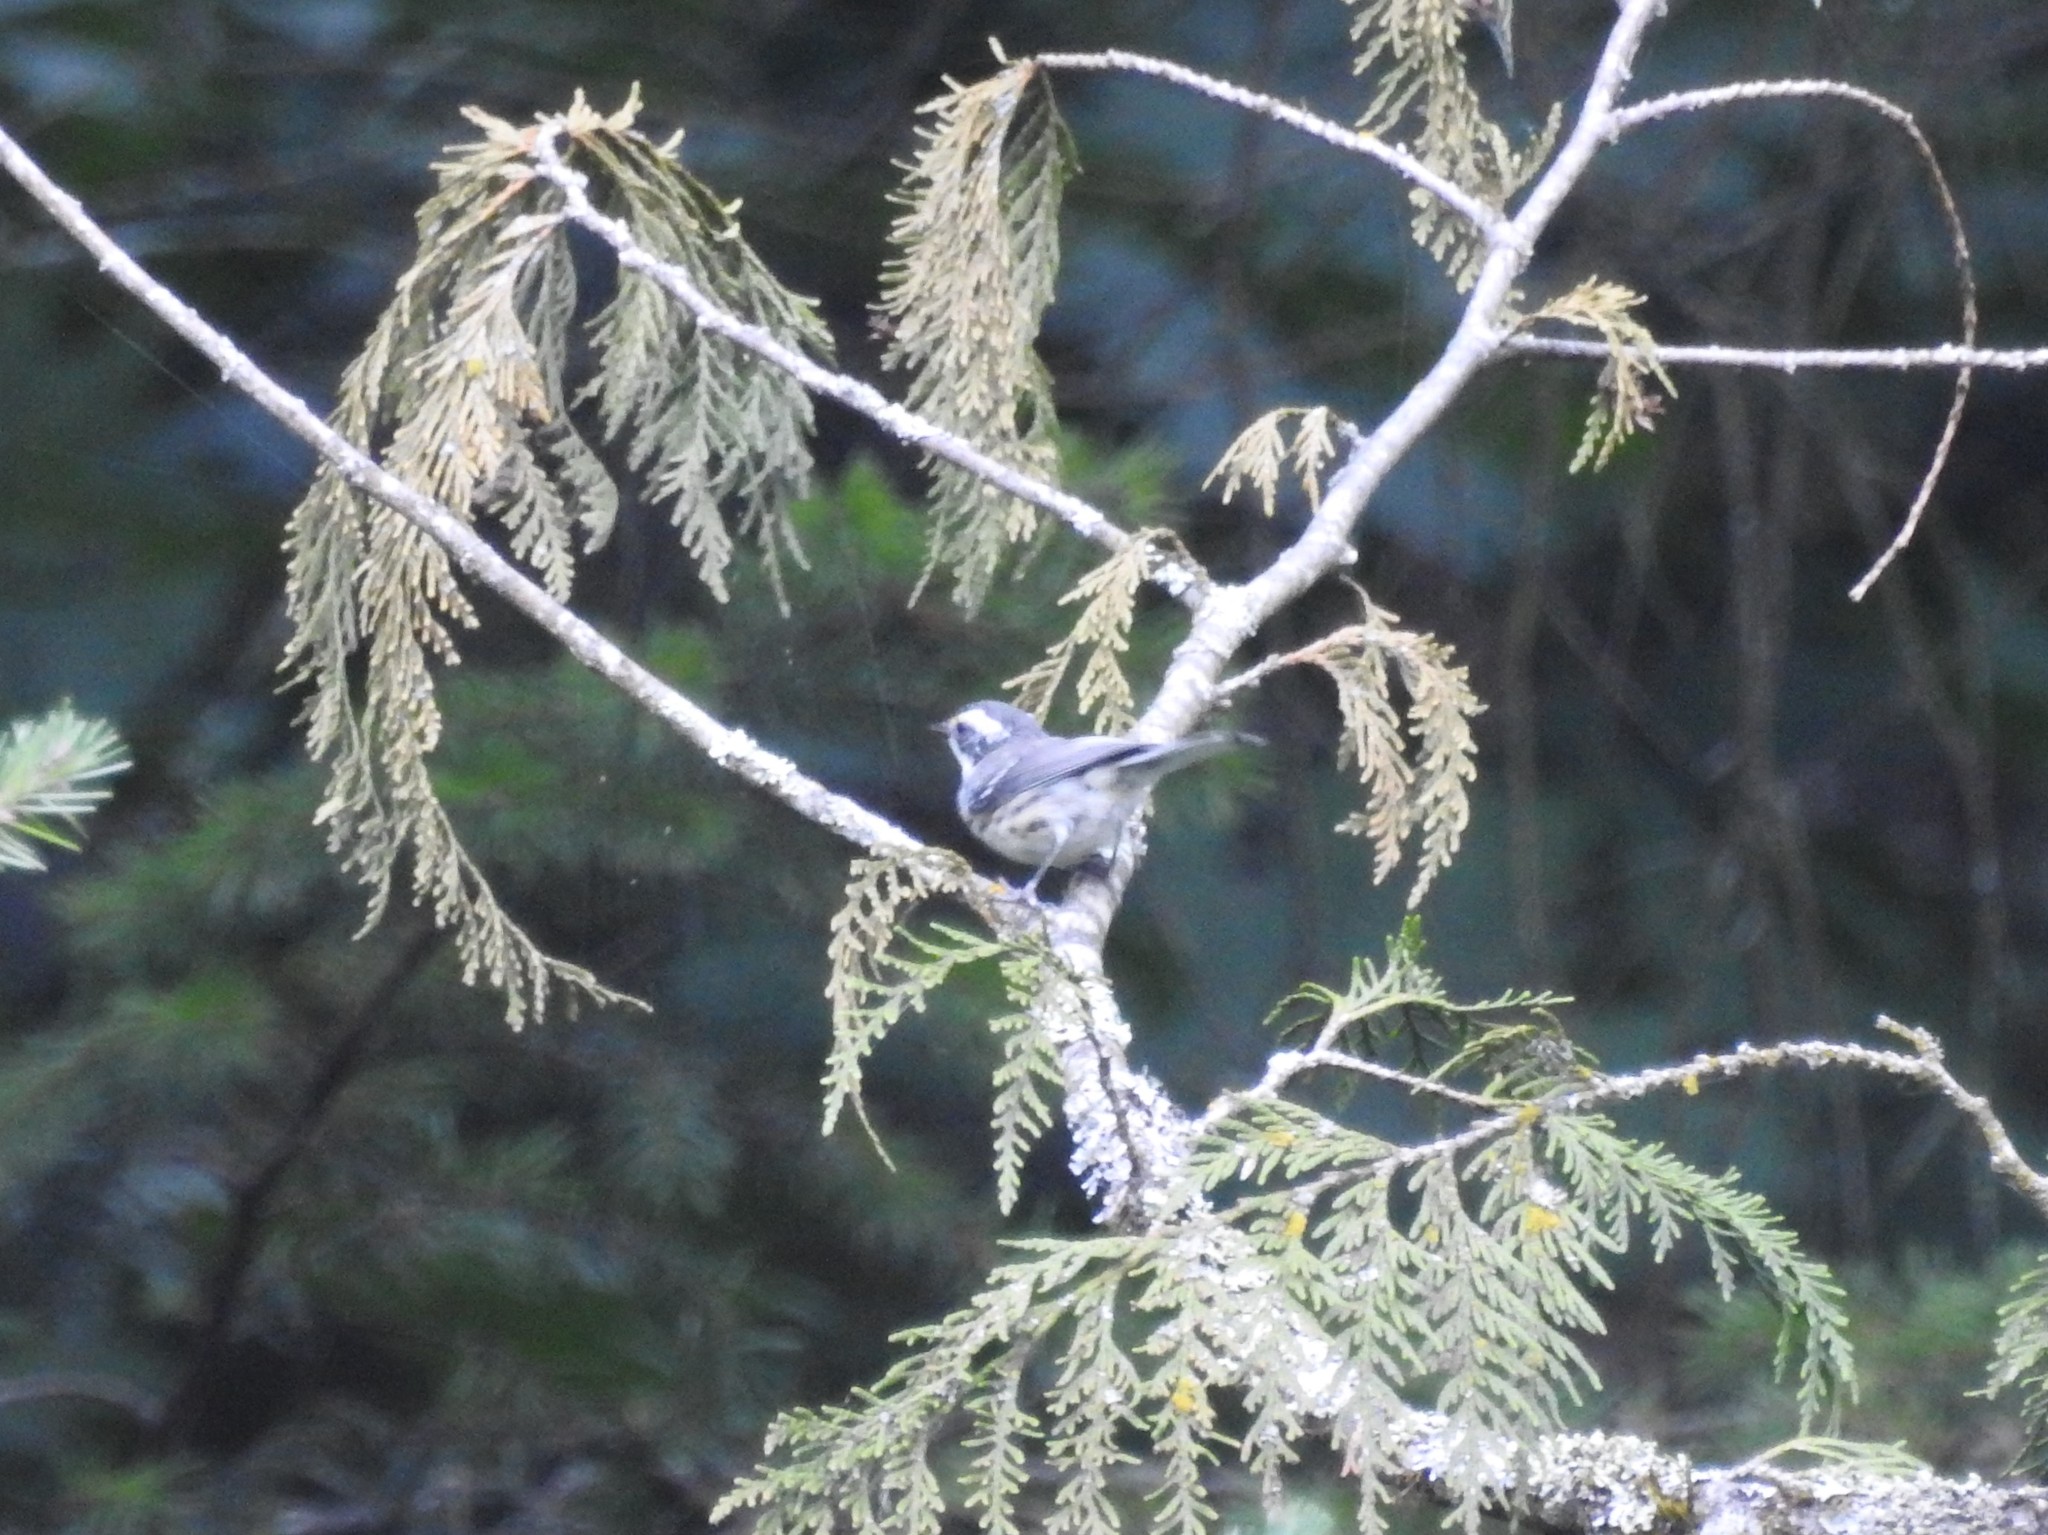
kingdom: Animalia
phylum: Chordata
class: Aves
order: Passeriformes
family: Parulidae
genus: Setophaga
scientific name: Setophaga nigrescens
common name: Black-throated gray warbler
